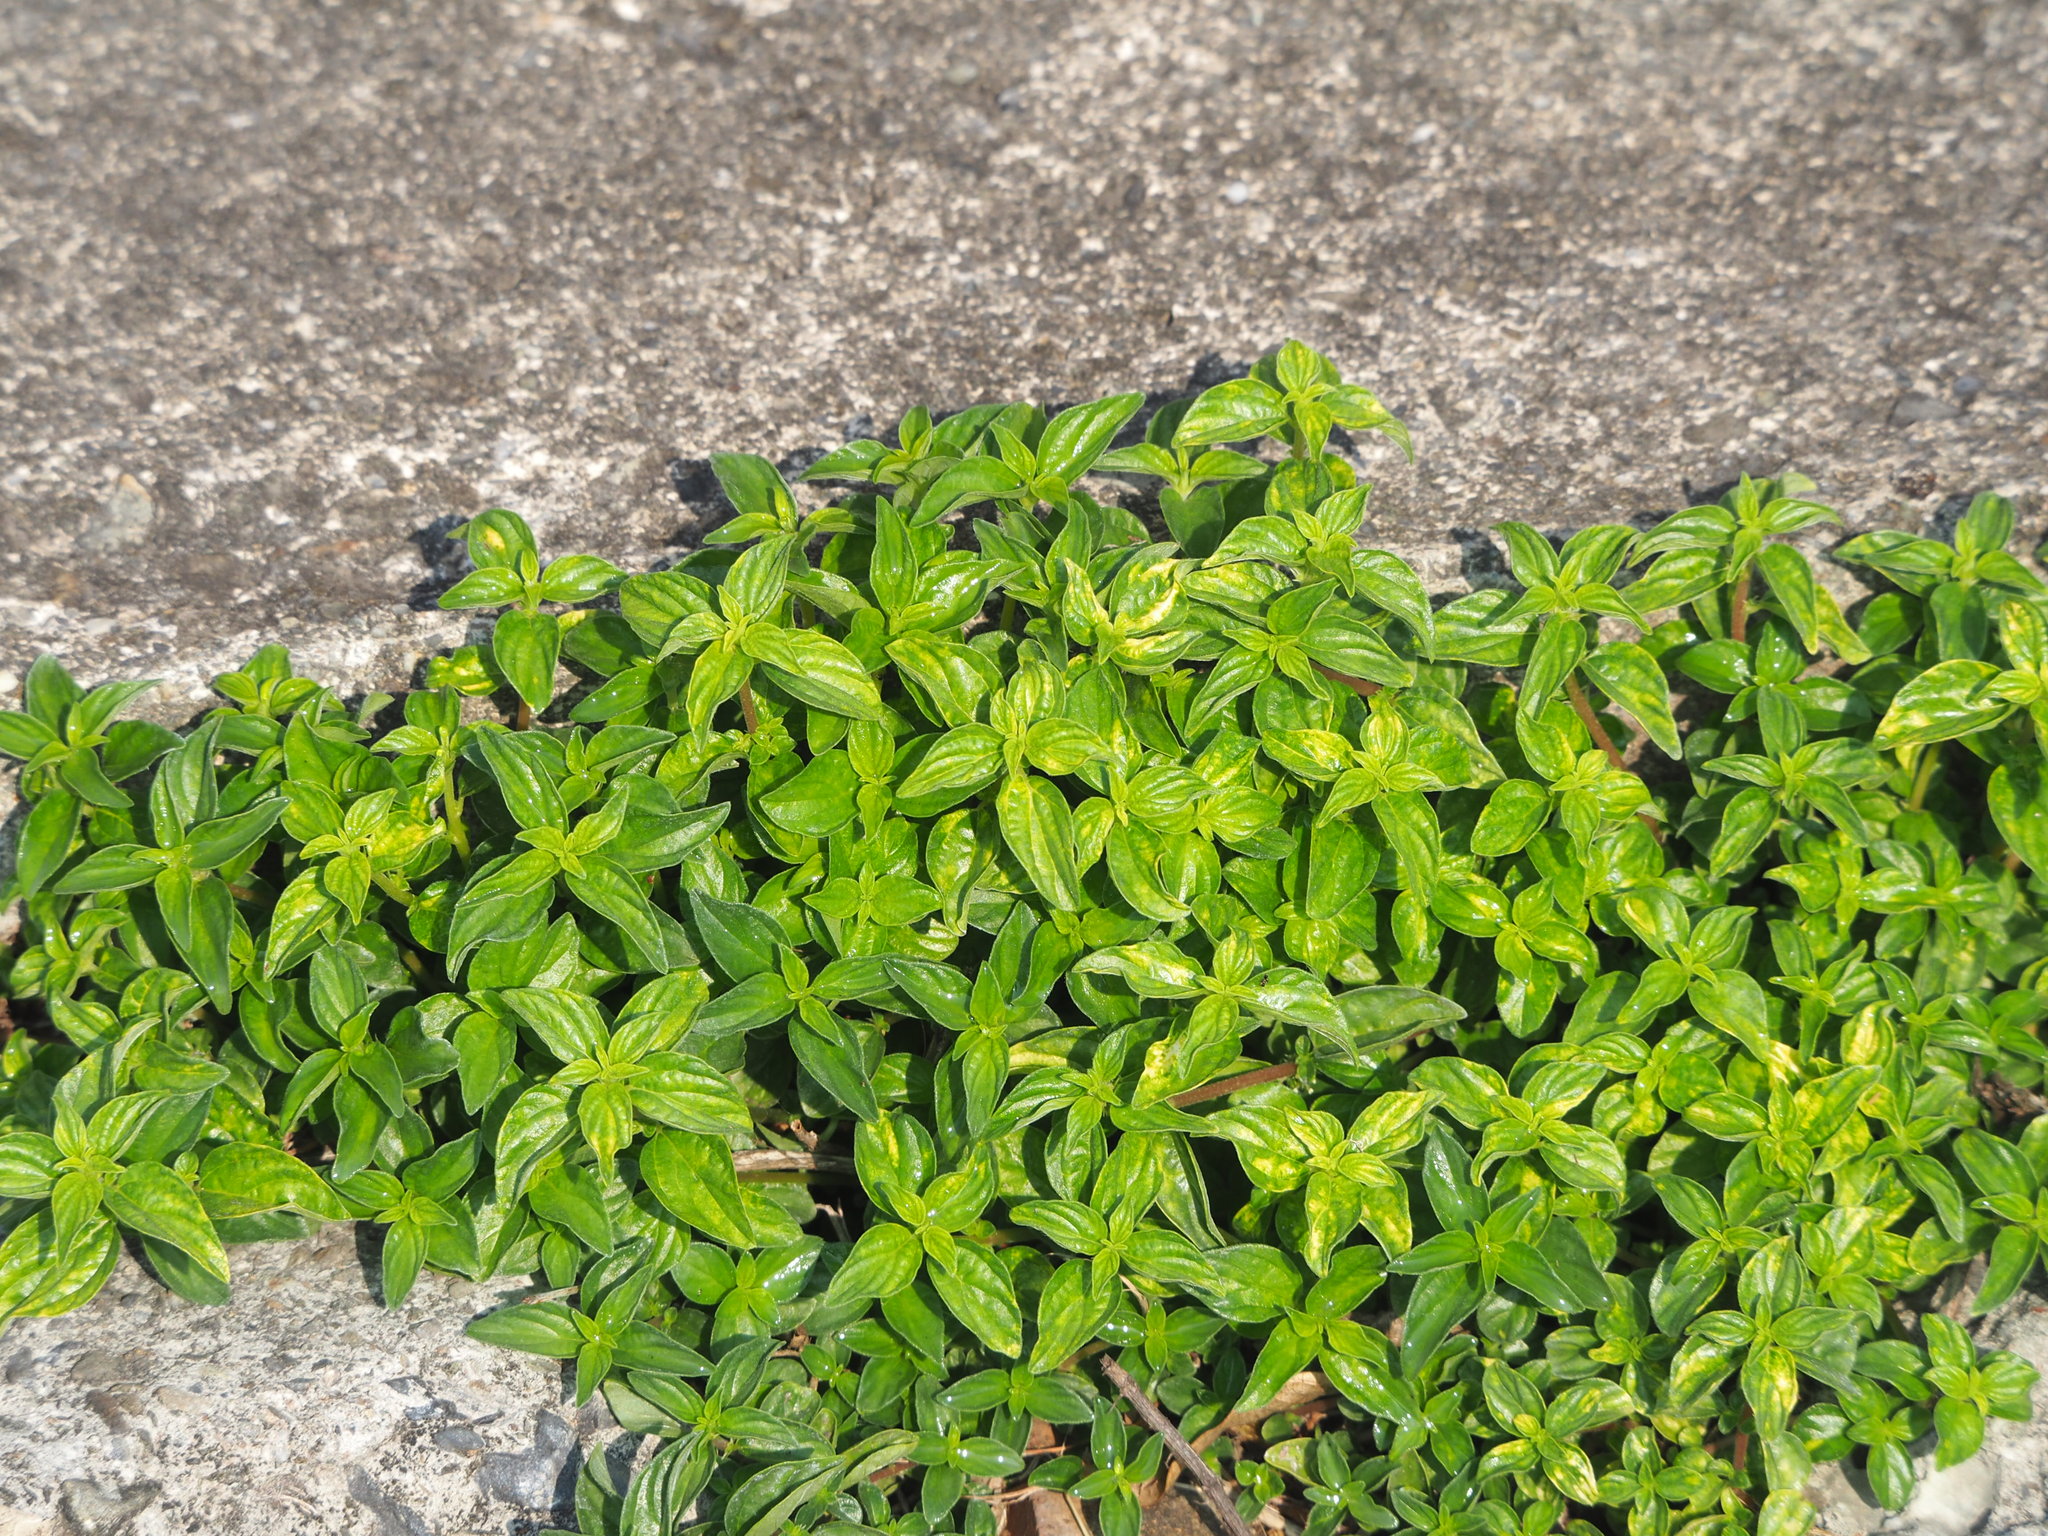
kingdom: Plantae
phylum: Tracheophyta
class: Magnoliopsida
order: Rosales
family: Urticaceae
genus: Pouzolzia
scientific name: Pouzolzia zeylanica
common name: Graceful pouzolzsbush
